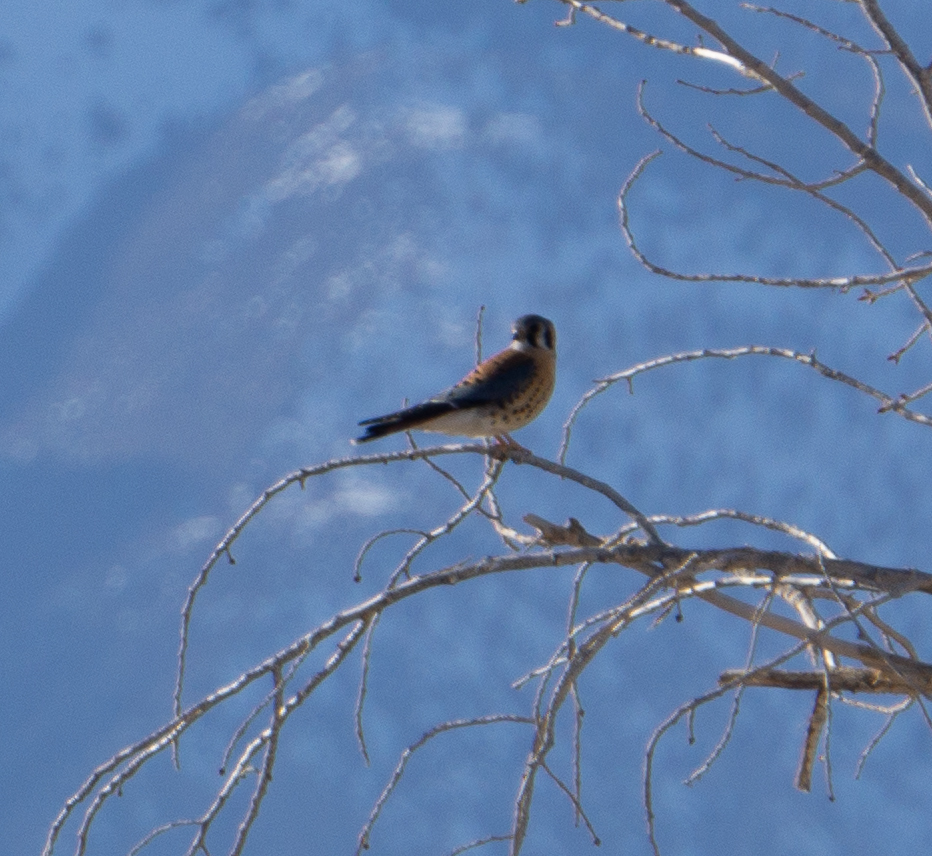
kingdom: Animalia
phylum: Chordata
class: Aves
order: Falconiformes
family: Falconidae
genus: Falco
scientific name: Falco sparverius
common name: American kestrel
